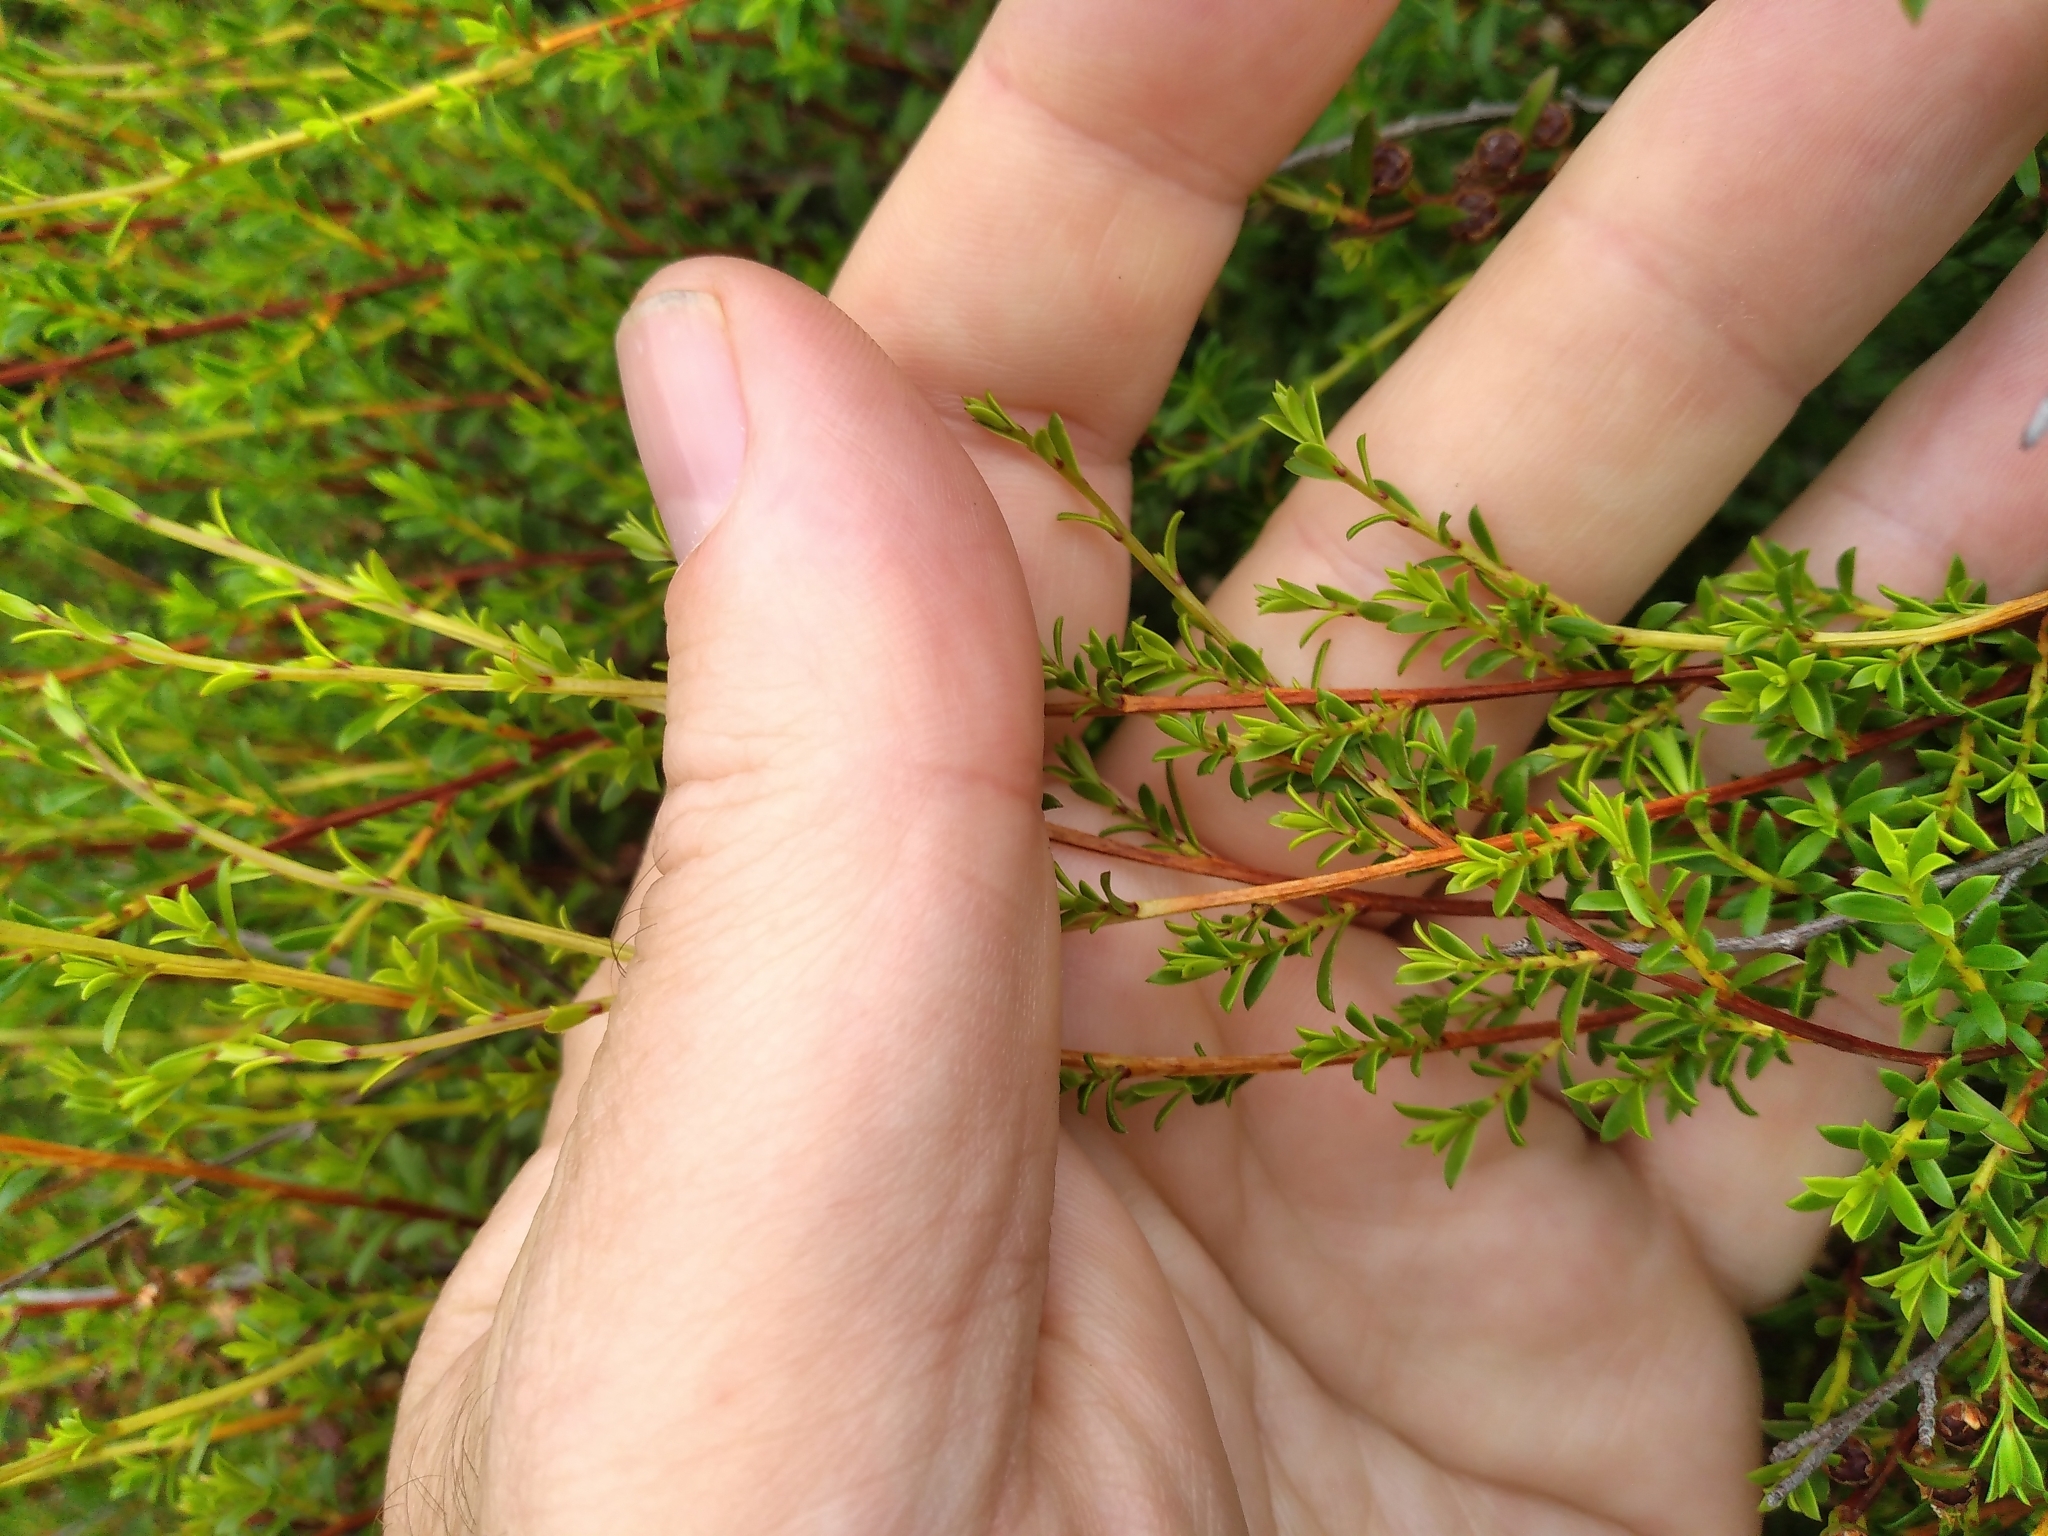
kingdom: Plantae
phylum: Tracheophyta
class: Magnoliopsida
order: Myrtales
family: Myrtaceae
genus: Kunzea
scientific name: Kunzea amathicola
